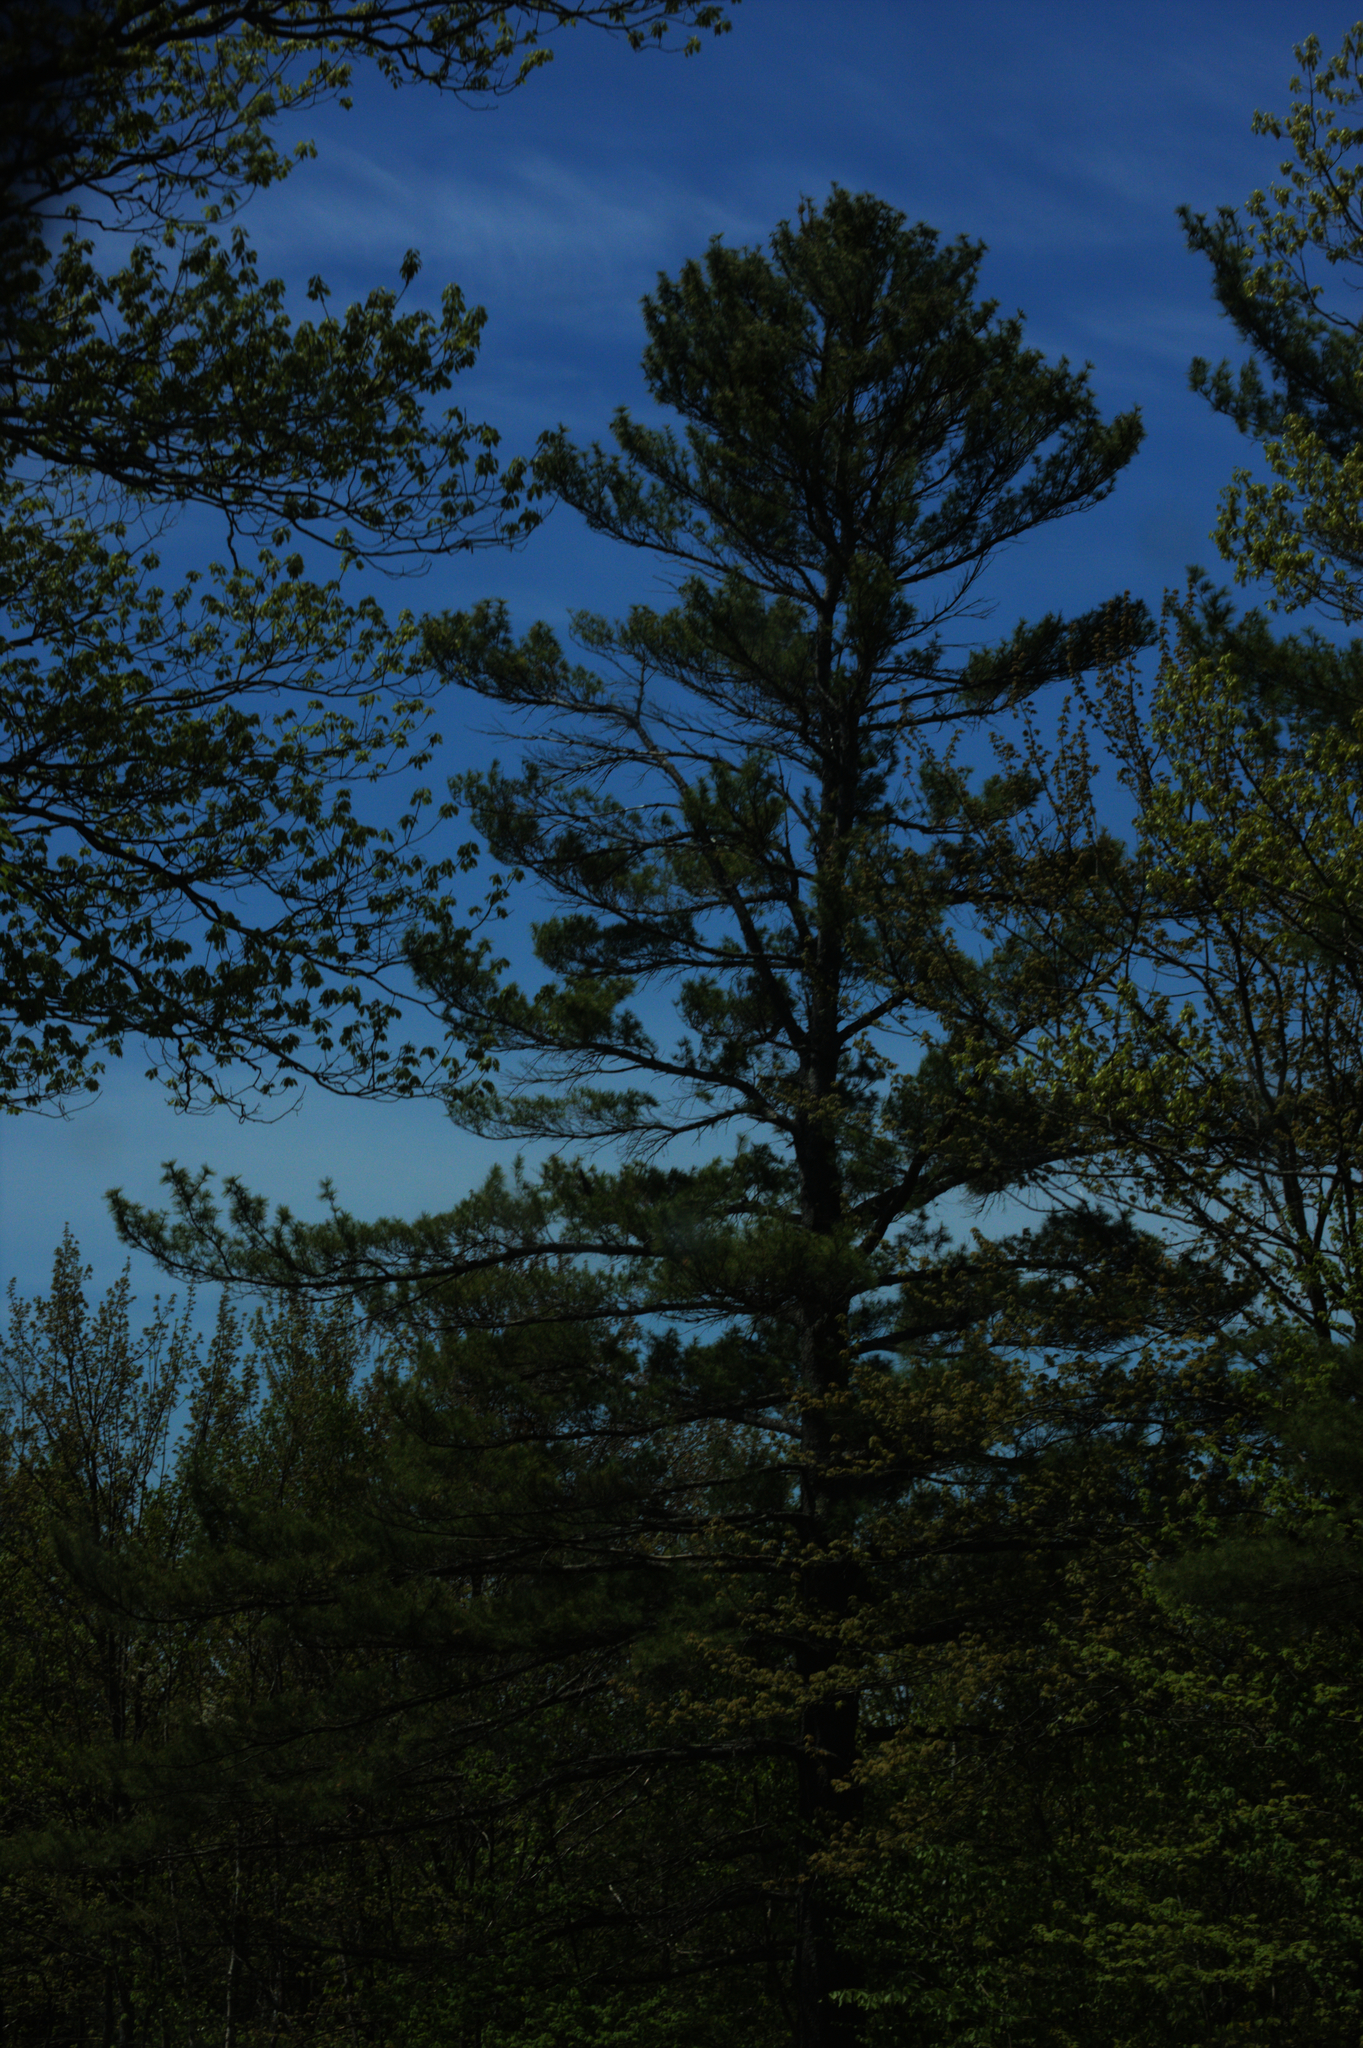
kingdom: Plantae
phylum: Tracheophyta
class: Pinopsida
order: Pinales
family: Pinaceae
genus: Pinus
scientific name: Pinus strobus
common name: Weymouth pine
